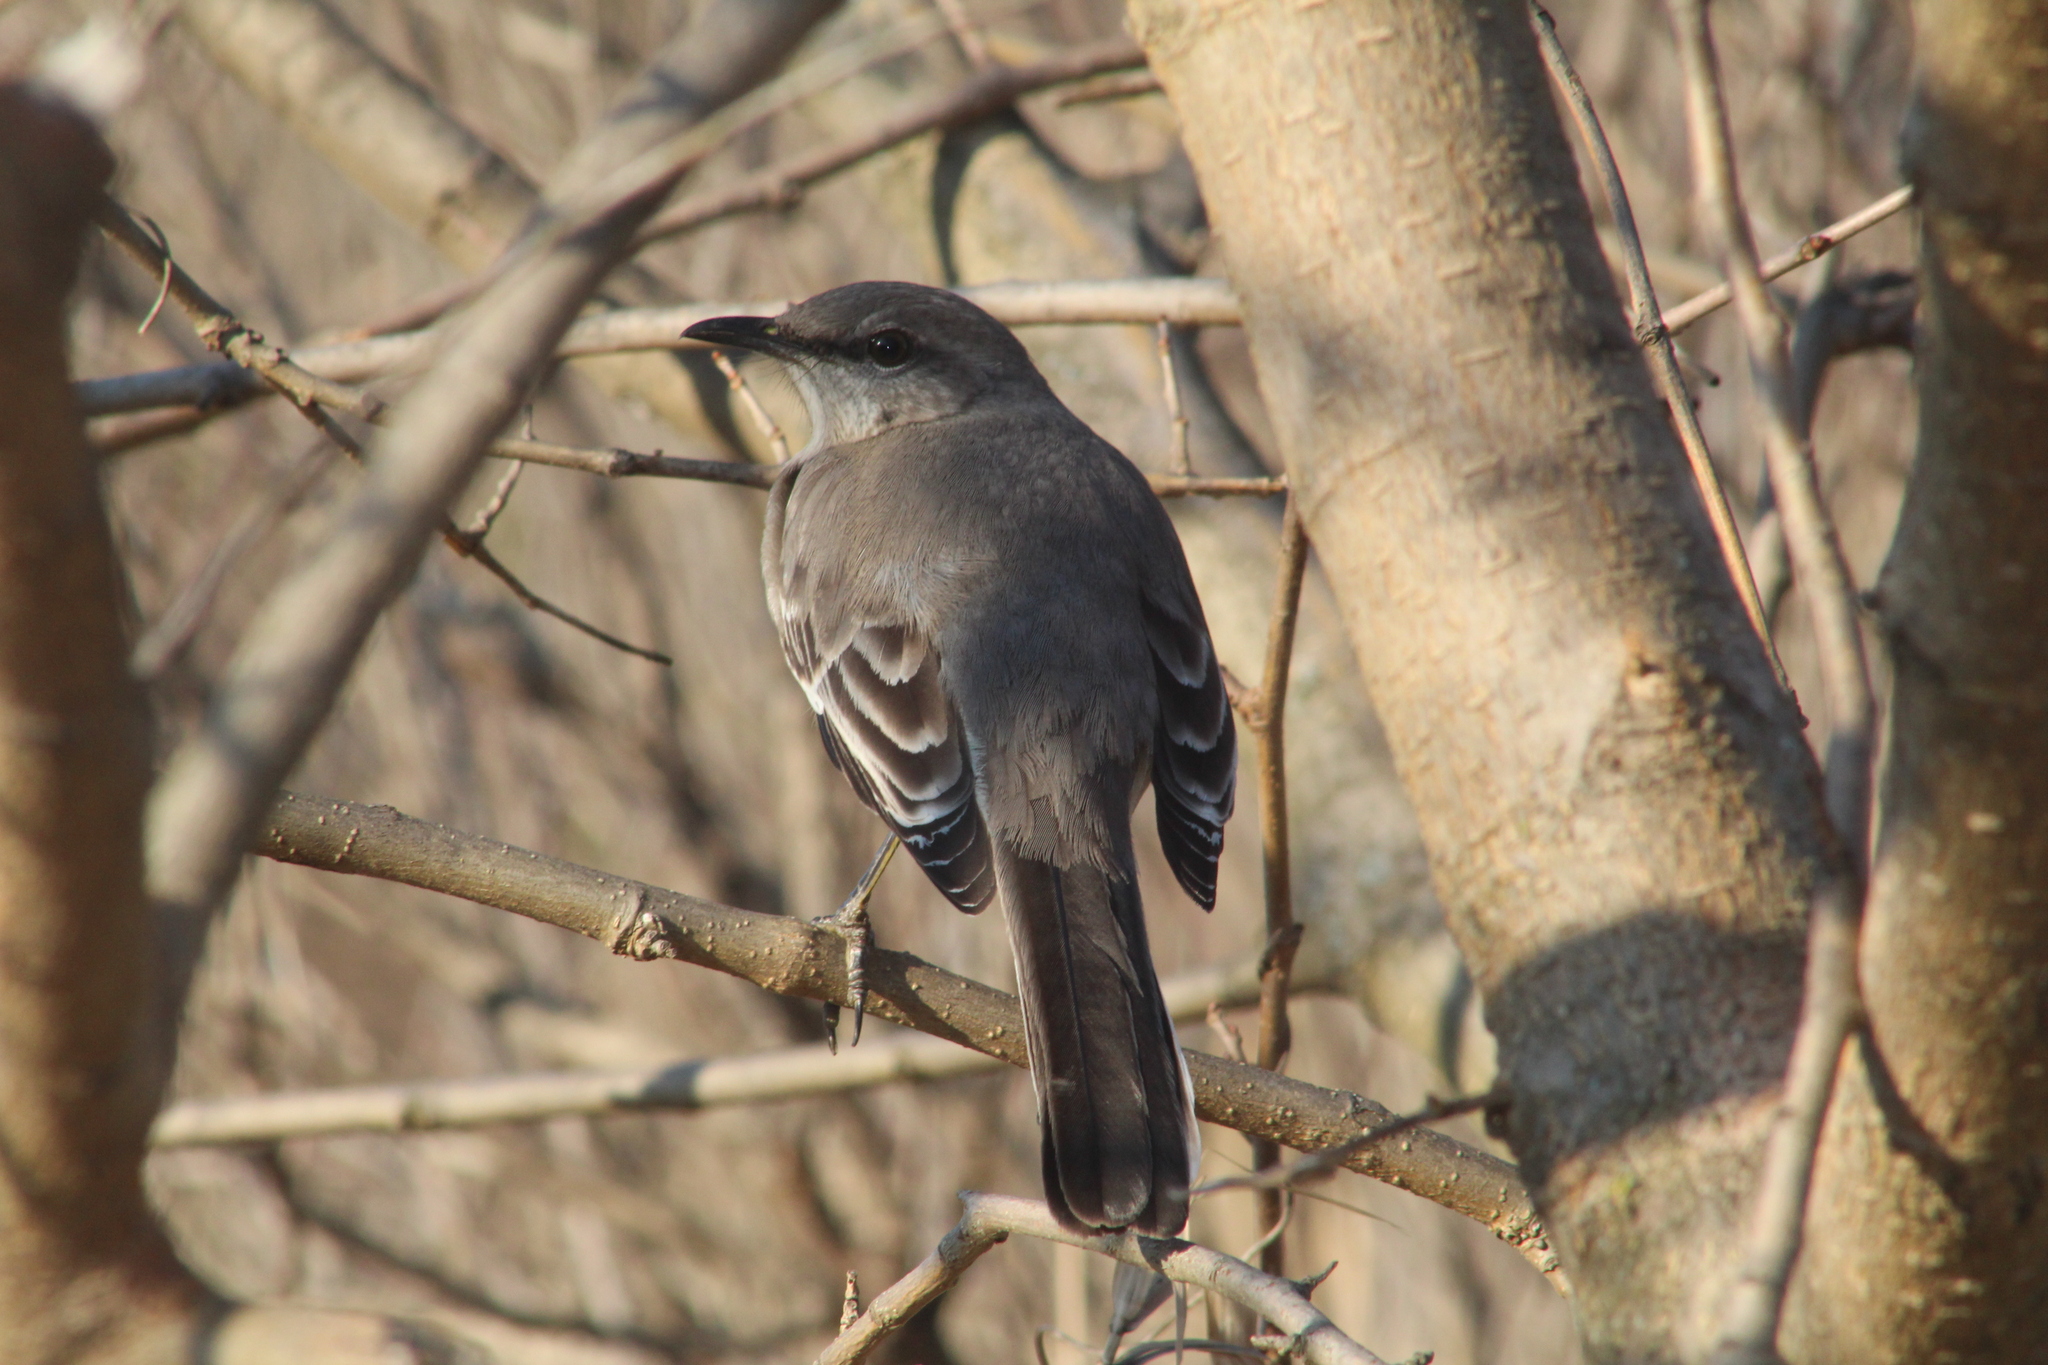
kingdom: Animalia
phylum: Chordata
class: Aves
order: Passeriformes
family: Mimidae
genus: Mimus
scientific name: Mimus polyglottos
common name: Northern mockingbird
